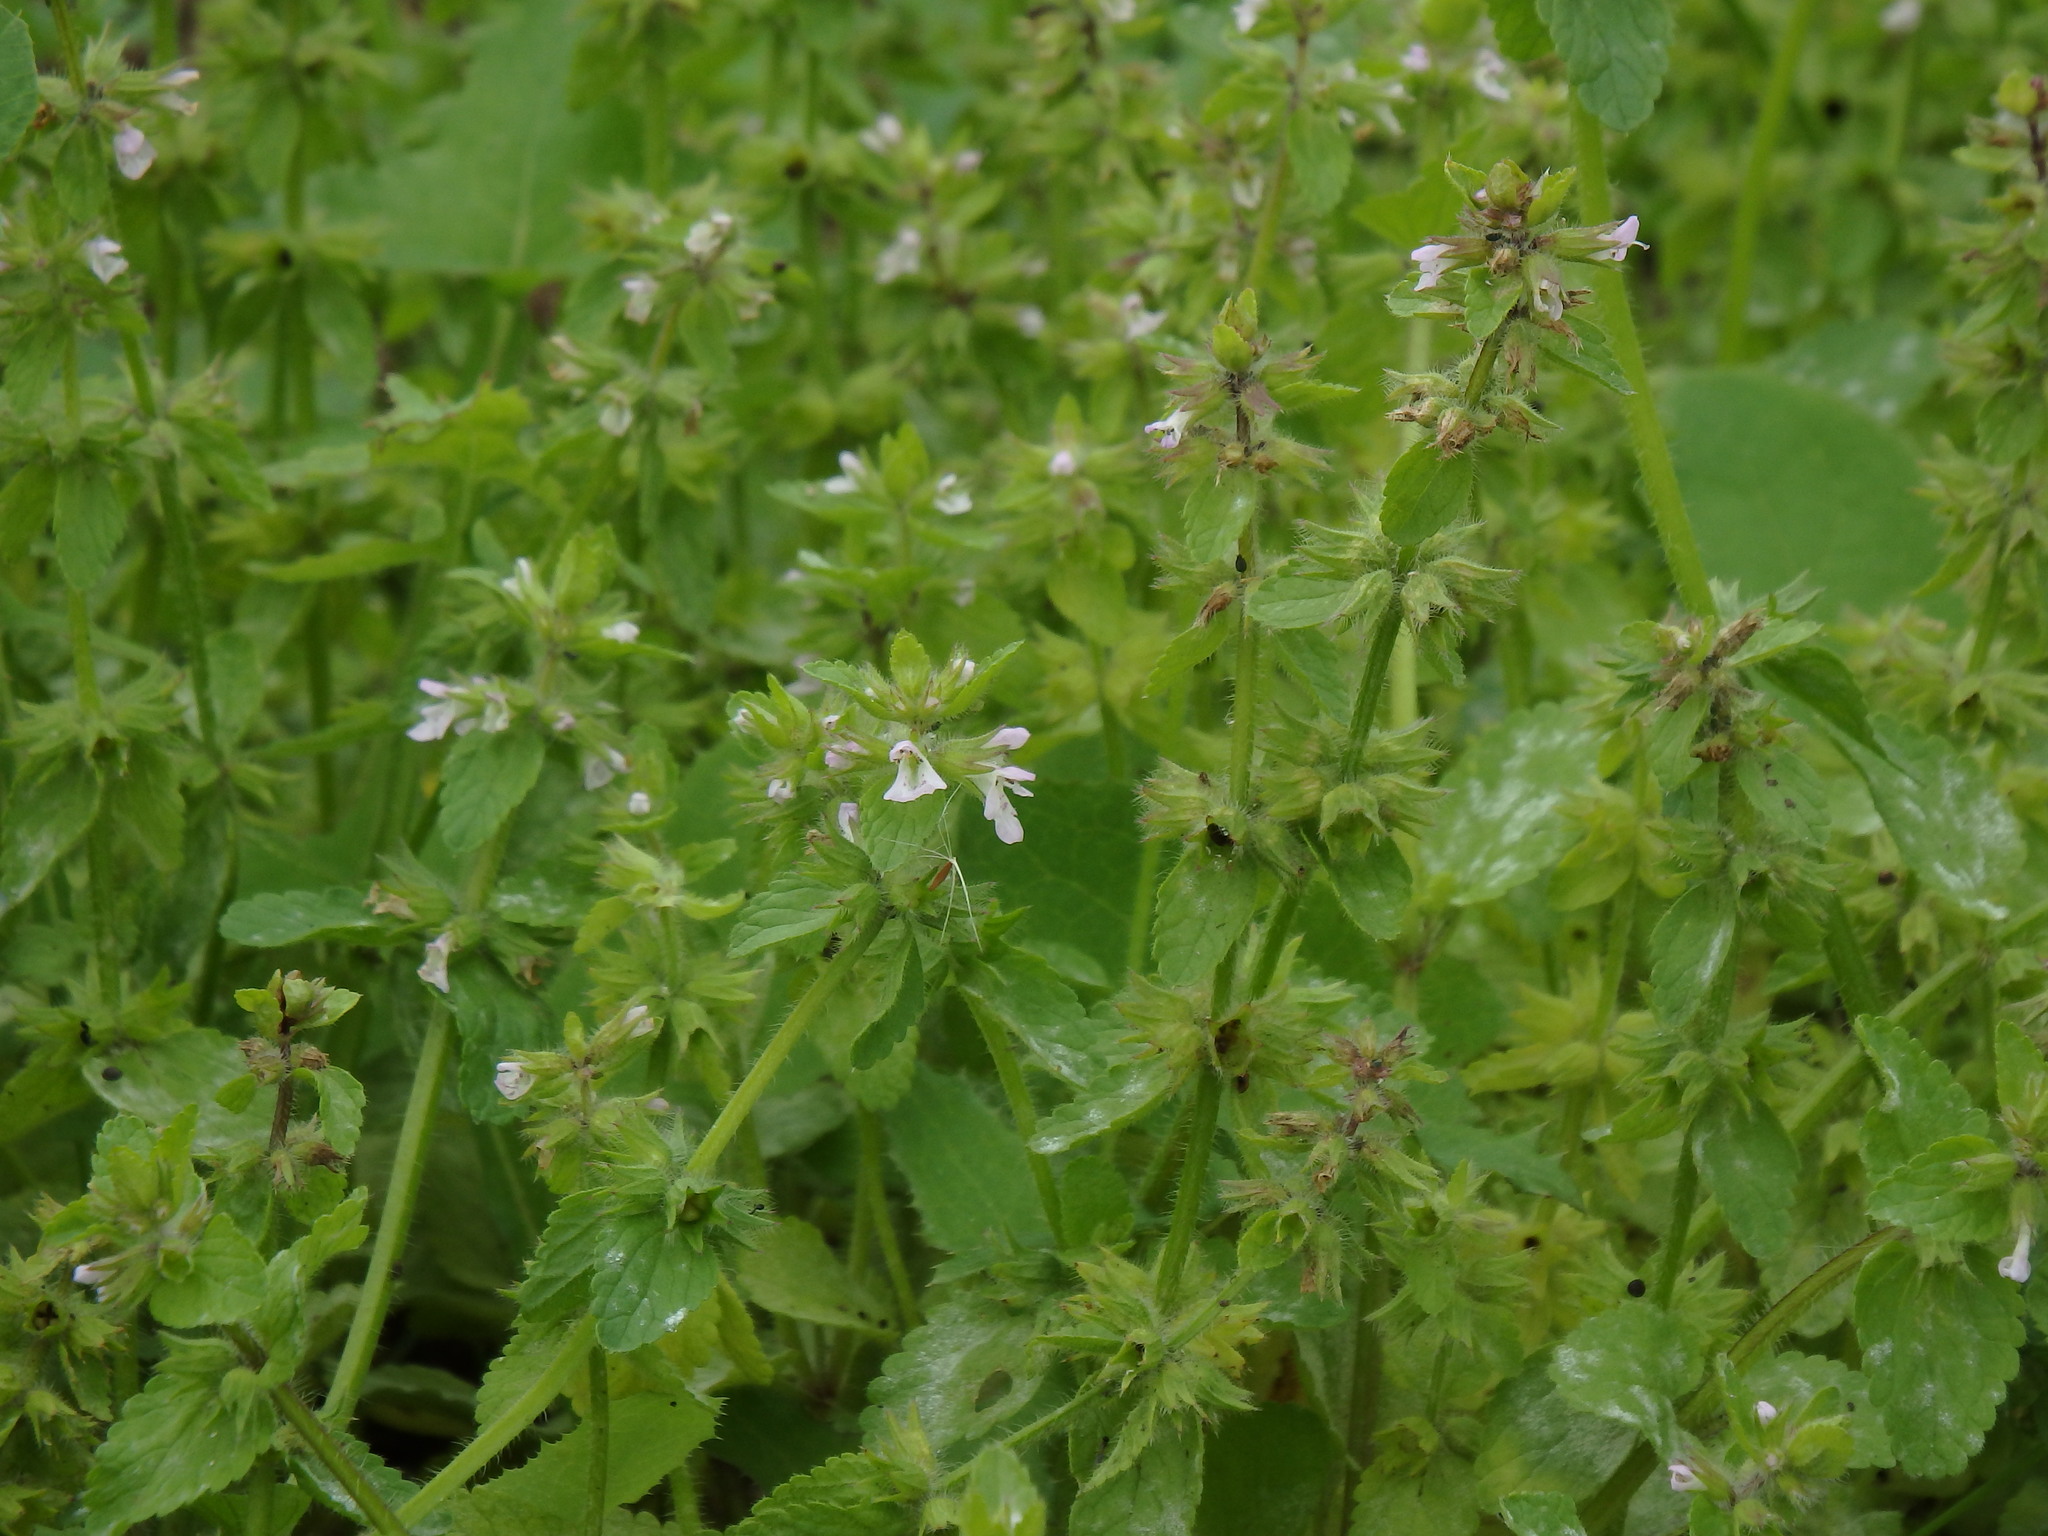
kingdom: Plantae
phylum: Tracheophyta
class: Magnoliopsida
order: Lamiales
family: Lamiaceae
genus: Stachys
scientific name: Stachys arvensis
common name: Field woundwort
